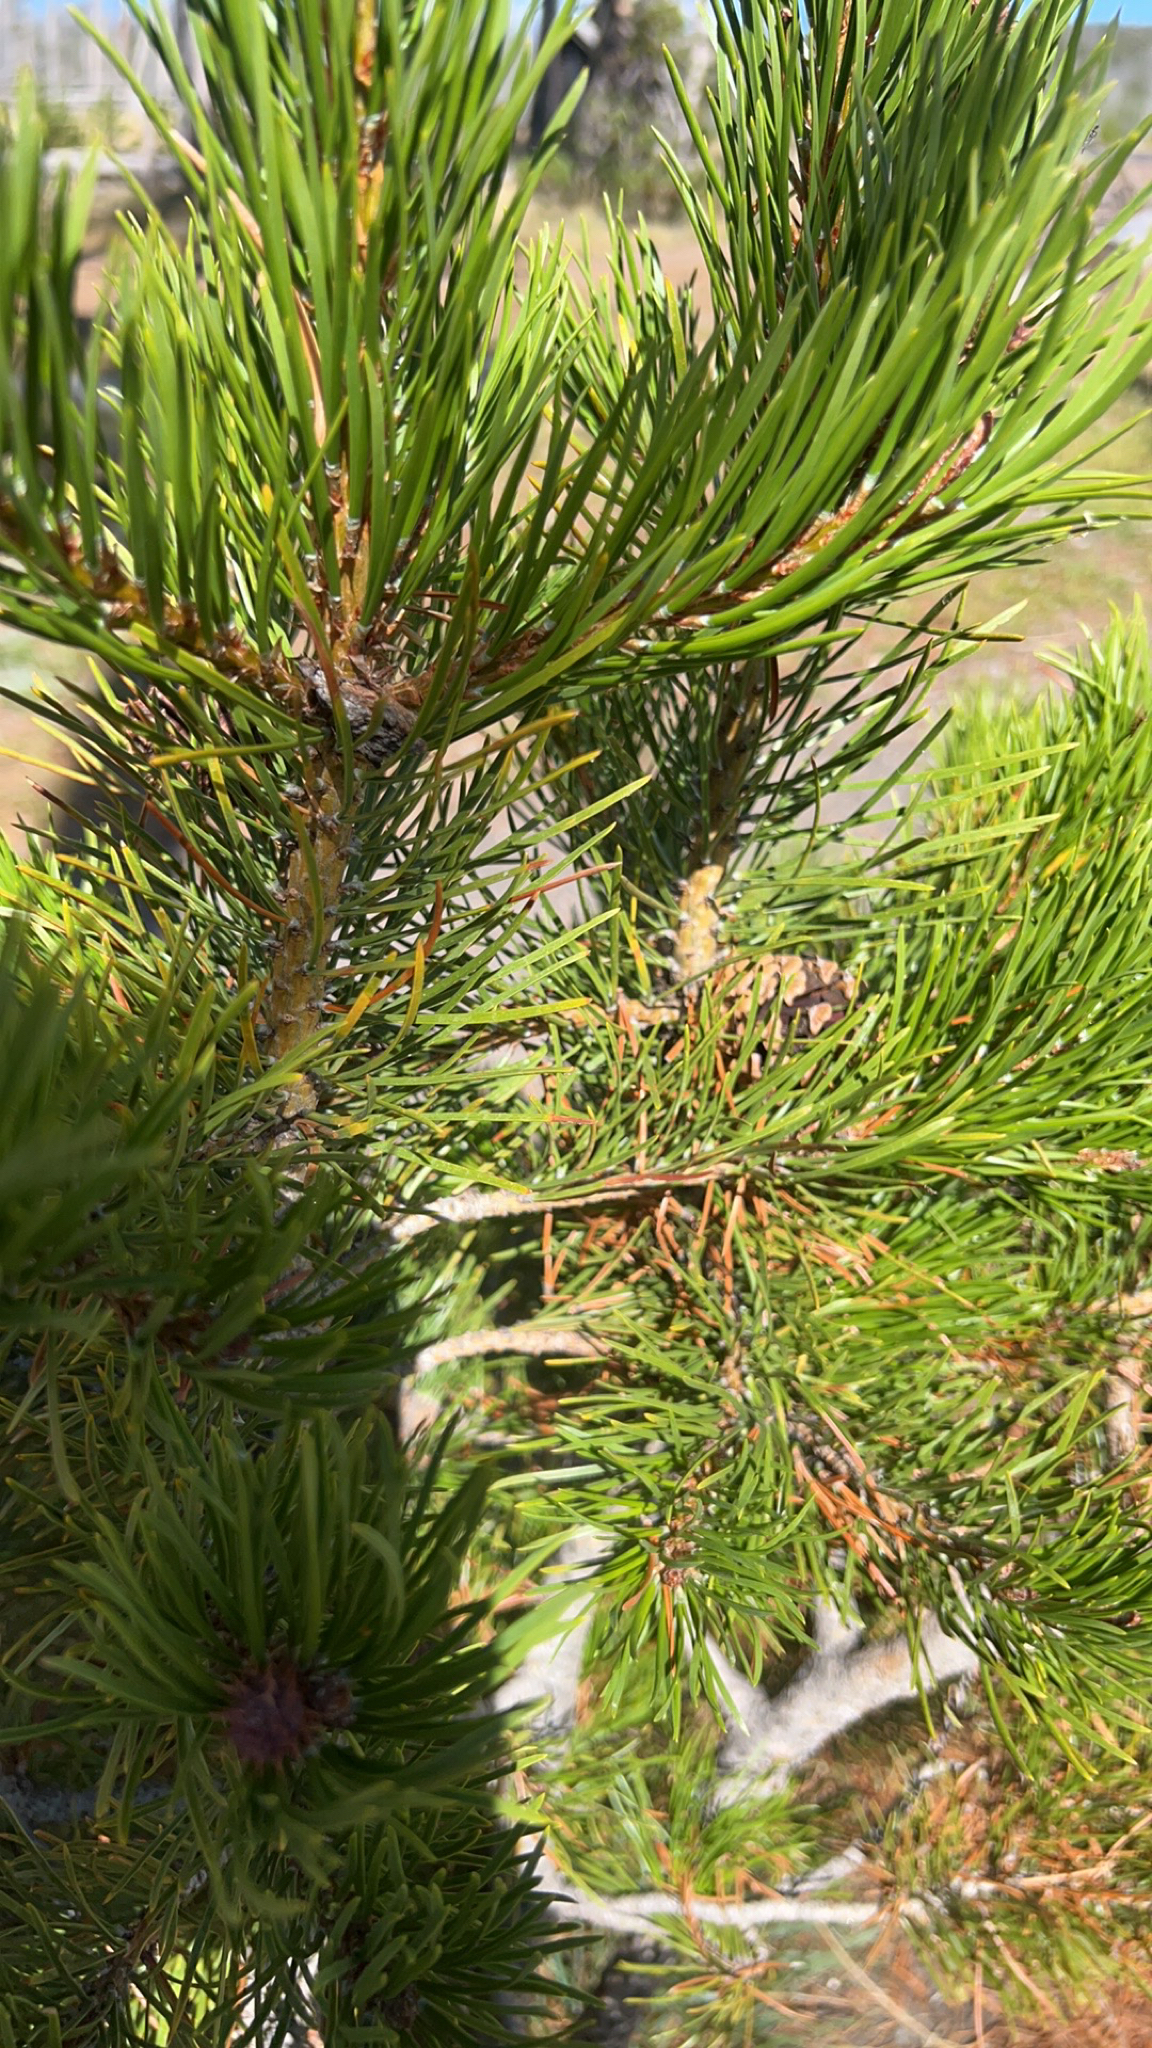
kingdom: Plantae
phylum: Tracheophyta
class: Pinopsida
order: Pinales
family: Pinaceae
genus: Pinus
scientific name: Pinus contorta
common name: Lodgepole pine
